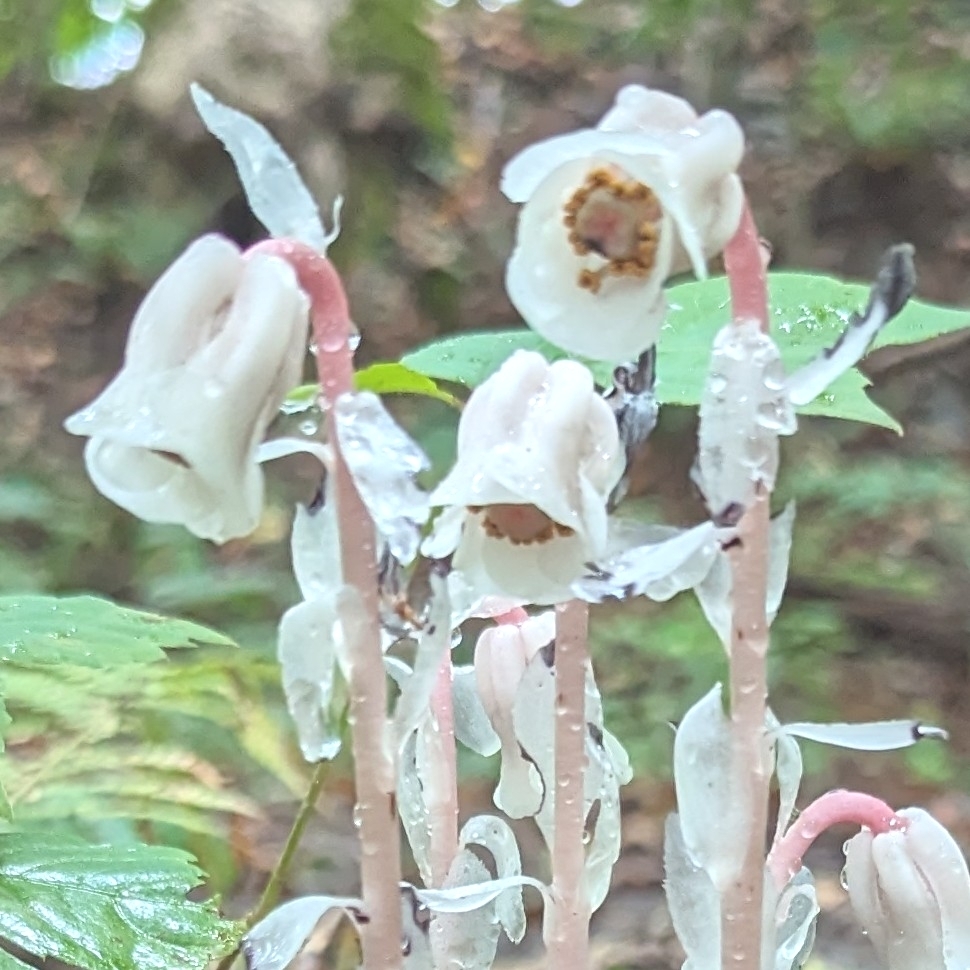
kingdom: Plantae
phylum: Tracheophyta
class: Magnoliopsida
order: Ericales
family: Ericaceae
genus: Monotropa
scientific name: Monotropa uniflora
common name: Convulsion root
